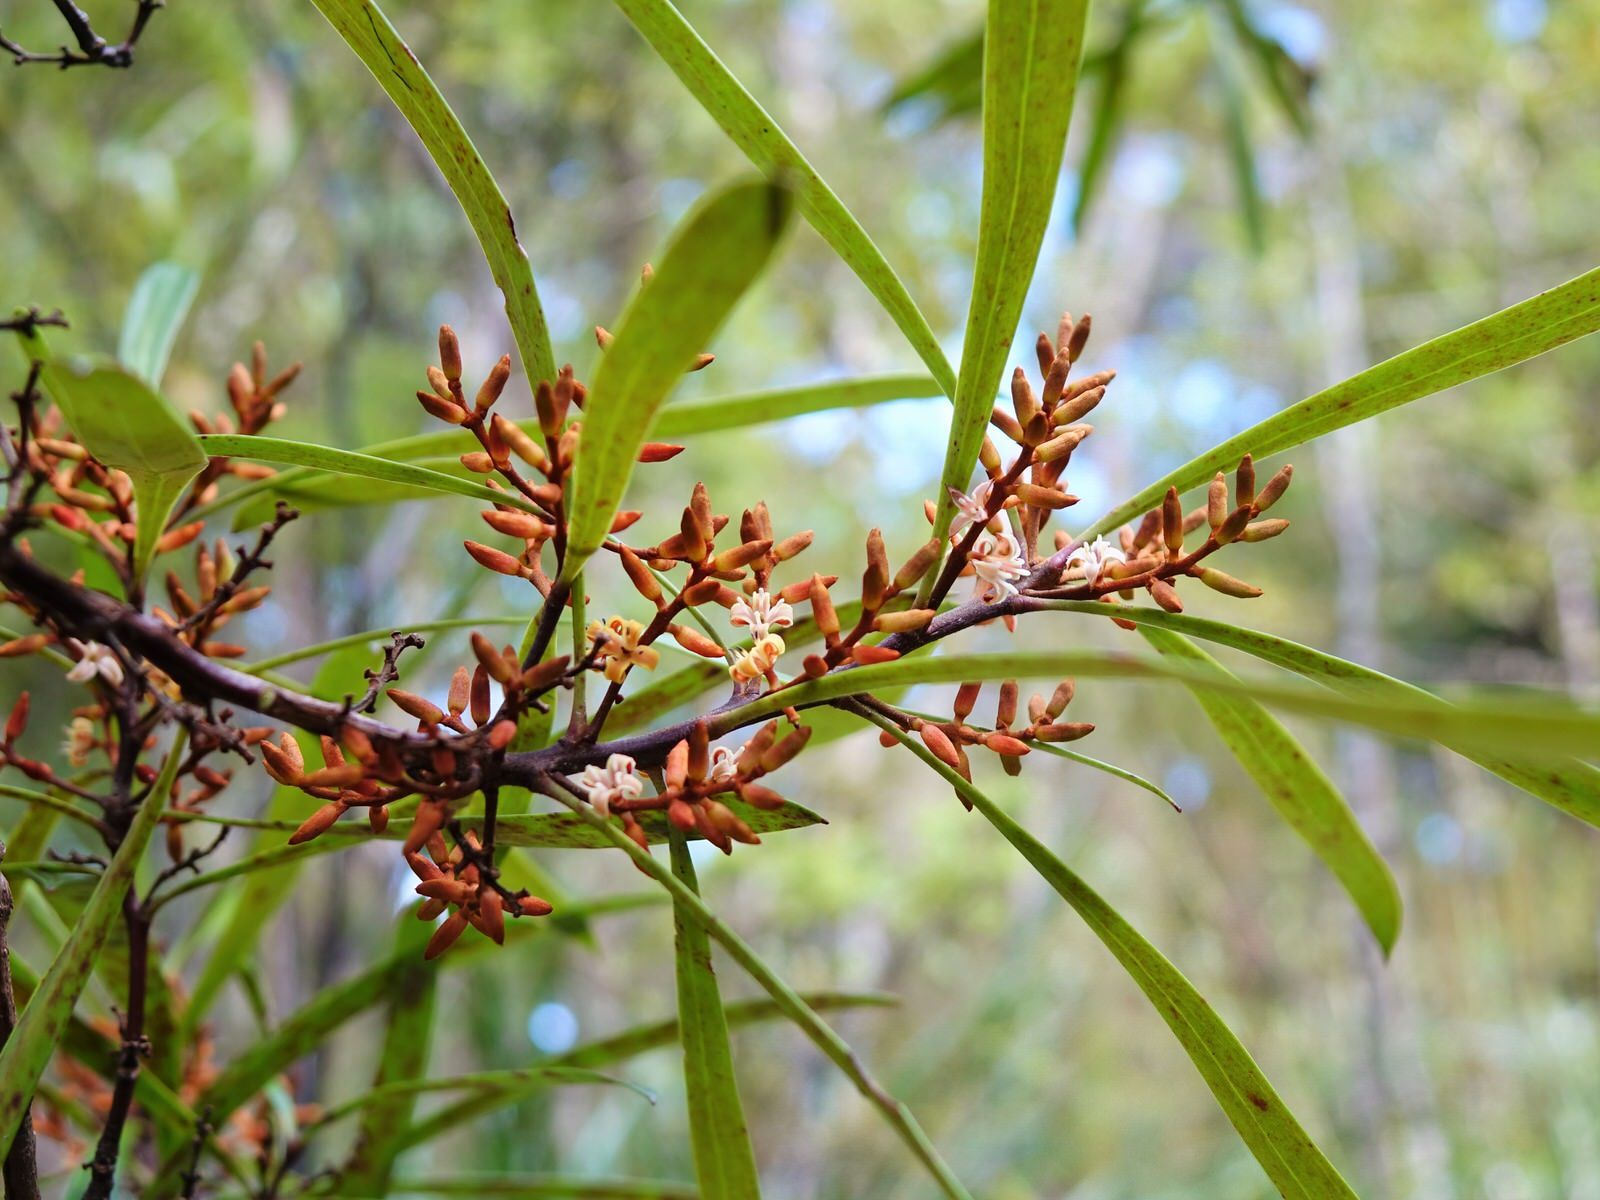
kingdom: Plantae
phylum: Tracheophyta
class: Magnoliopsida
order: Proteales
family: Proteaceae
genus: Toronia
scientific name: Toronia toru
